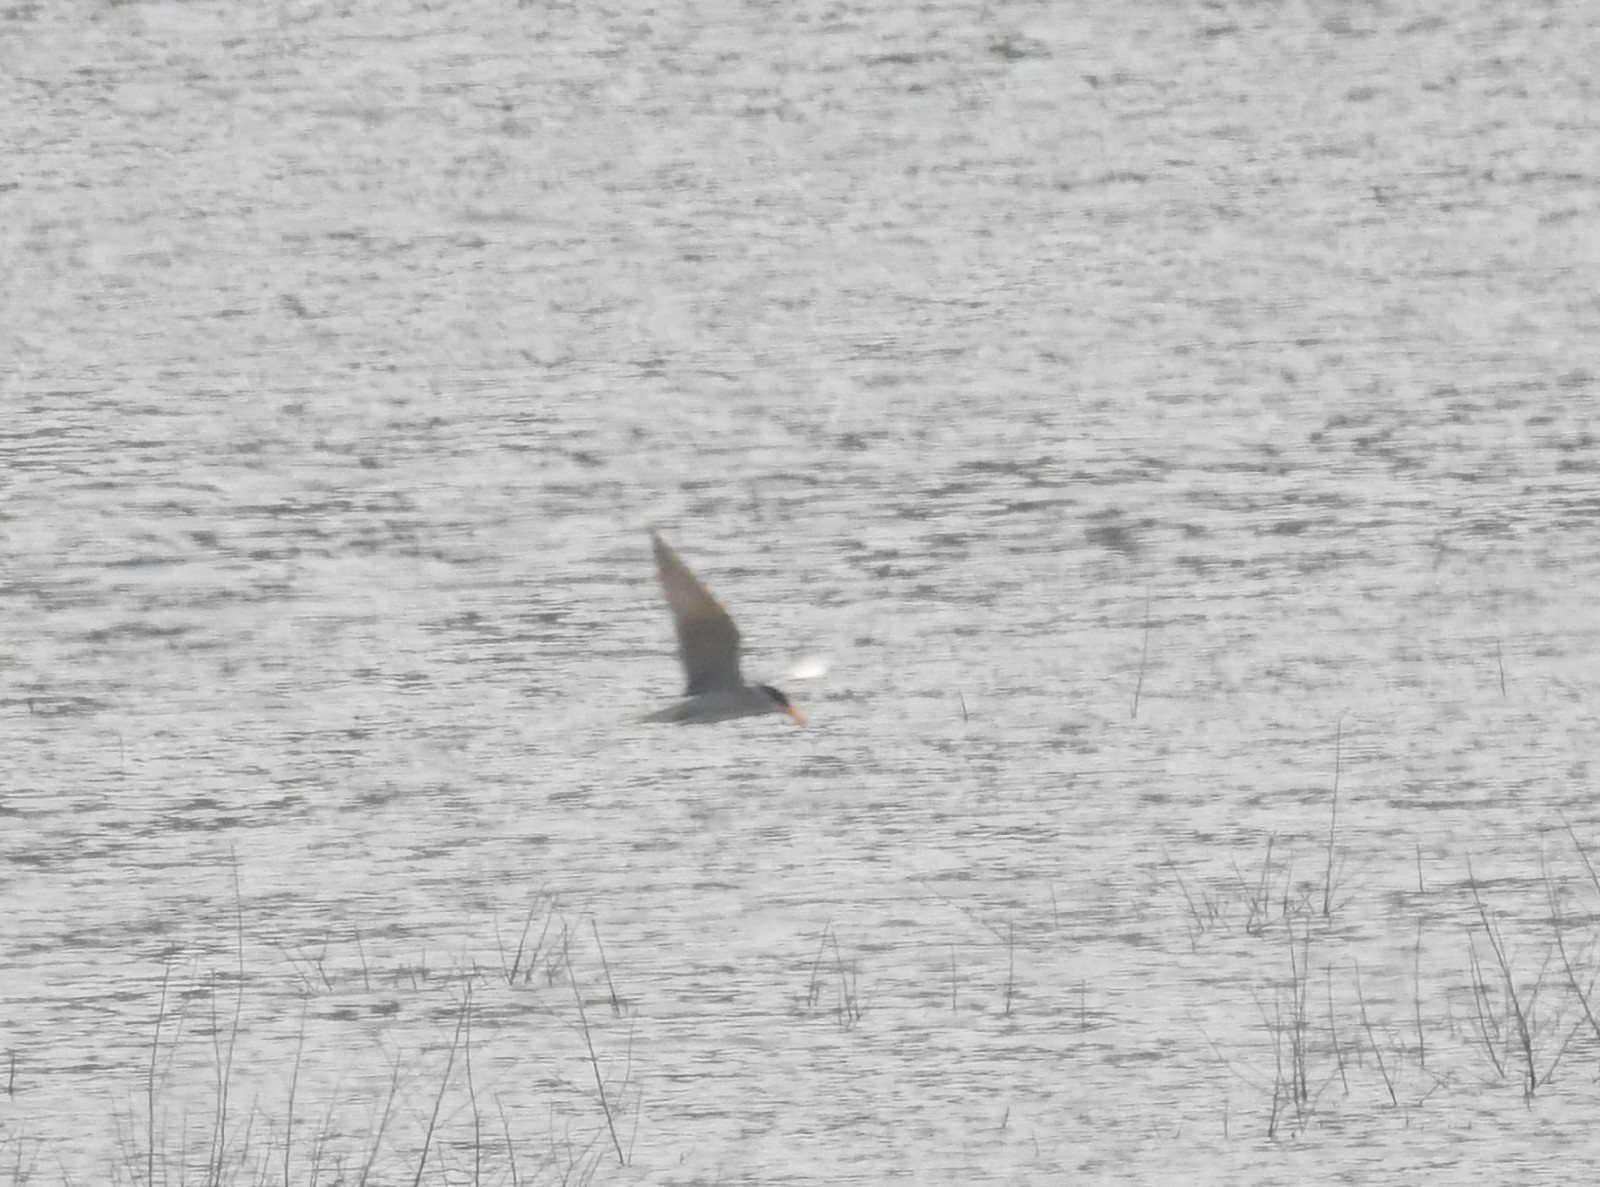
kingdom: Animalia
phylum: Chordata
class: Aves
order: Charadriiformes
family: Laridae
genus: Sterna
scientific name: Sterna aurantia
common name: River tern
